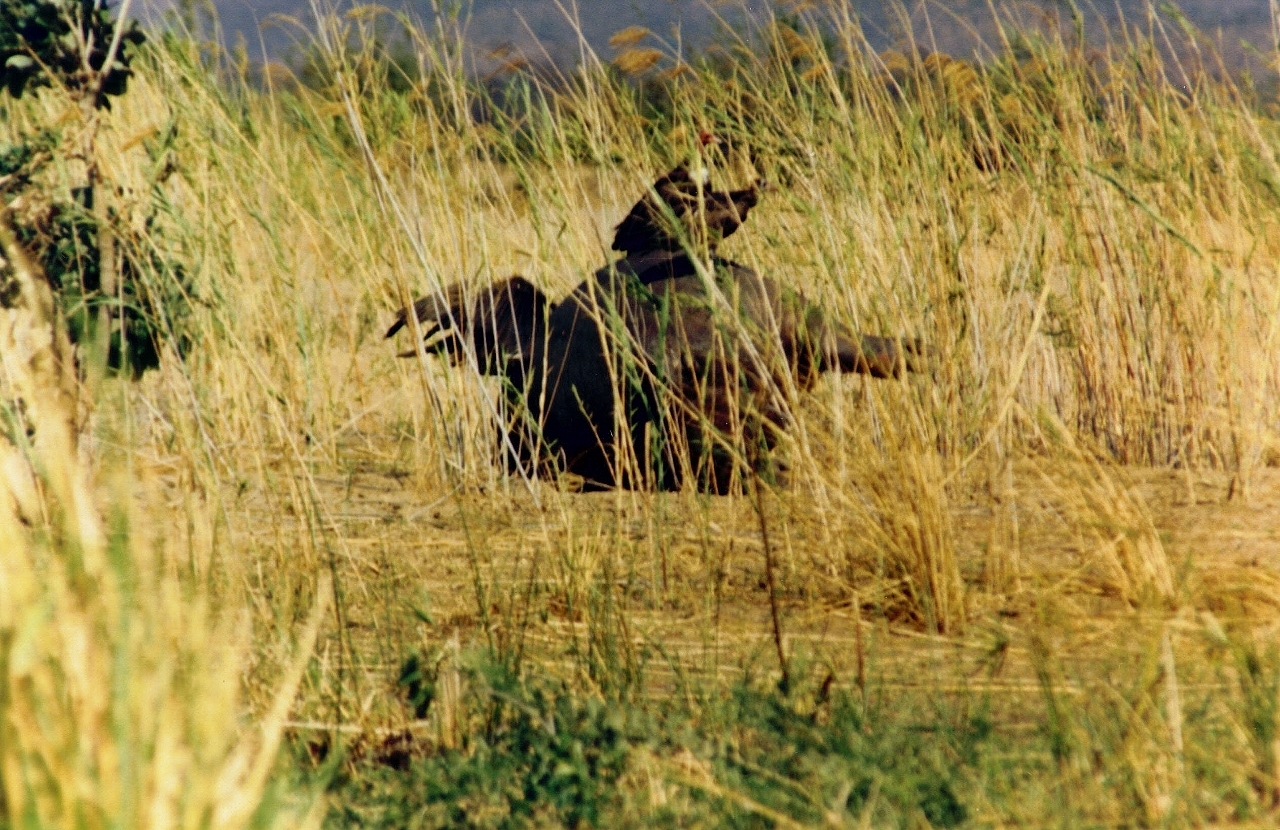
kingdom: Animalia
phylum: Chordata
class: Mammalia
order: Artiodactyla
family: Hippopotamidae
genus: Hippopotamus
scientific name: Hippopotamus amphibius
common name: Common hippopotamus
